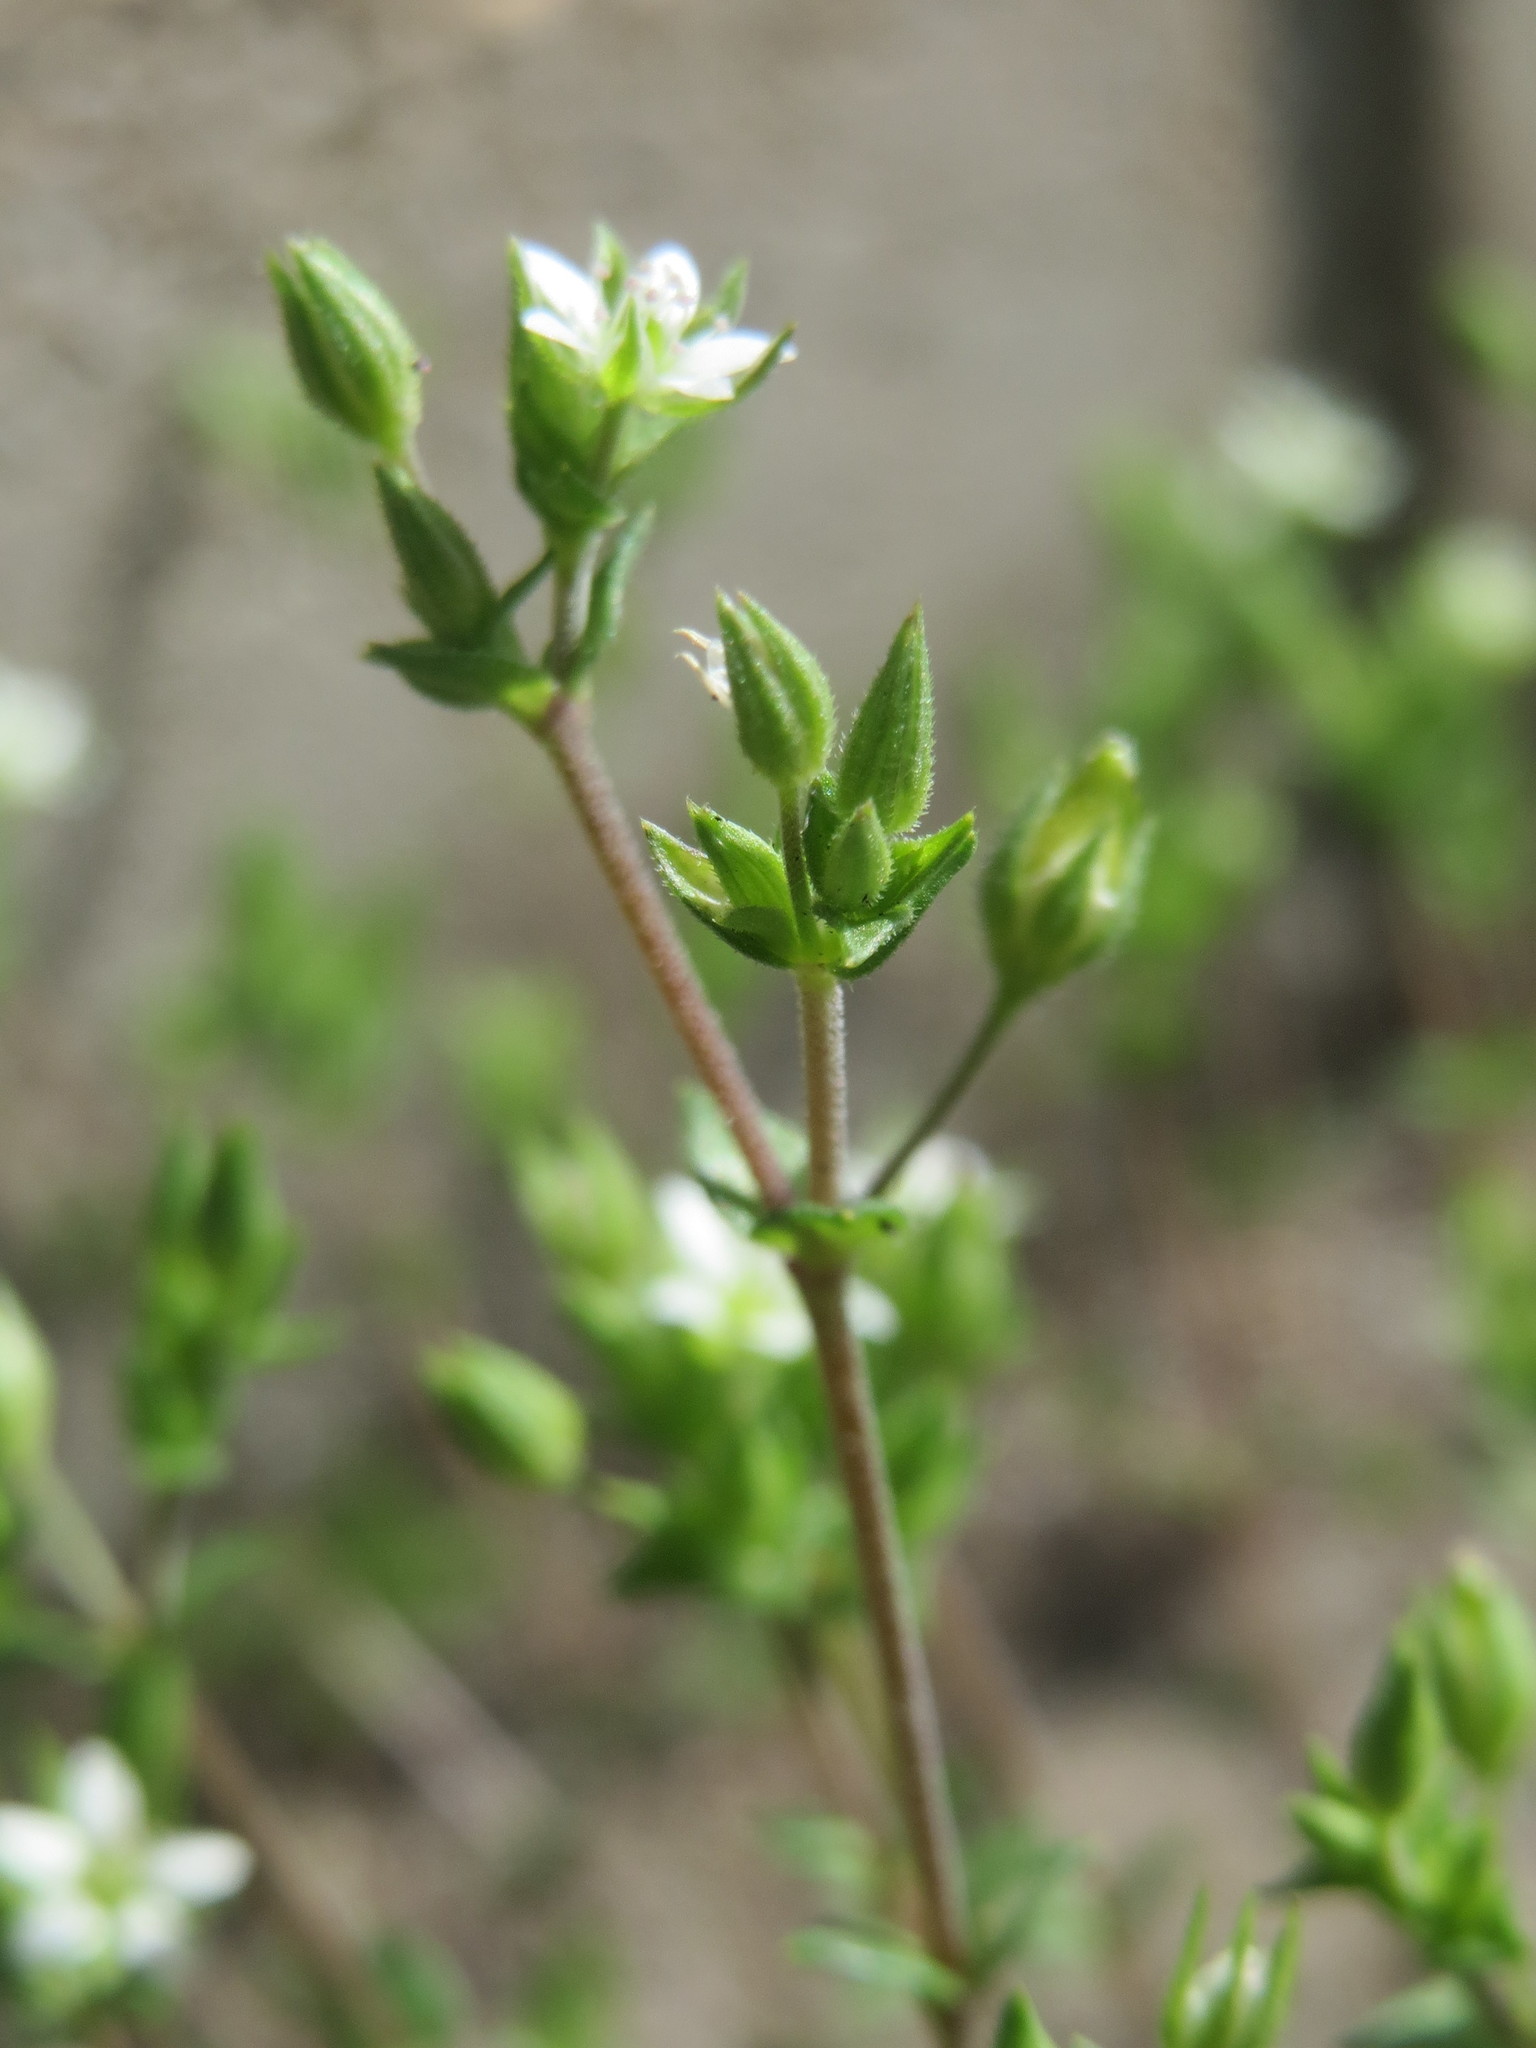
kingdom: Plantae
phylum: Tracheophyta
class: Magnoliopsida
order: Caryophyllales
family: Caryophyllaceae
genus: Arenaria
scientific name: Arenaria serpyllifolia
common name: Thyme-leaved sandwort
